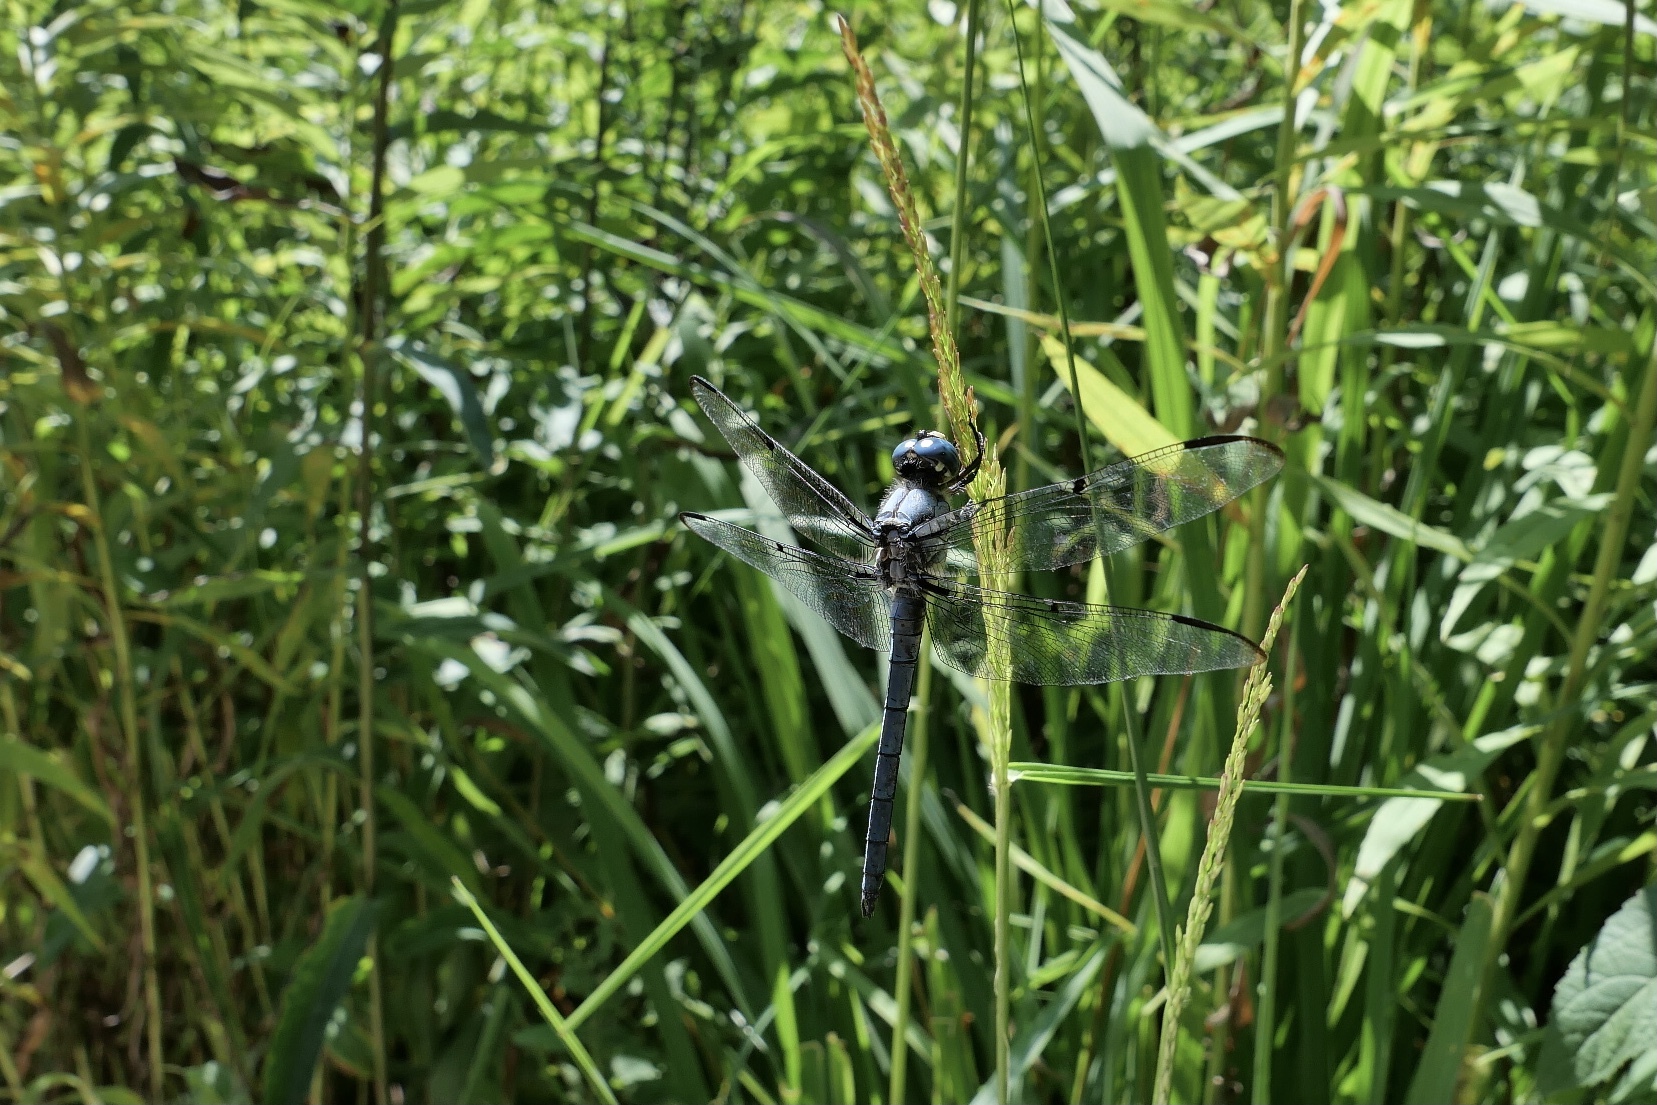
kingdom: Animalia
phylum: Arthropoda
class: Insecta
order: Odonata
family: Libellulidae
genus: Libellula
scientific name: Libellula vibrans
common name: Great blue skimmer
